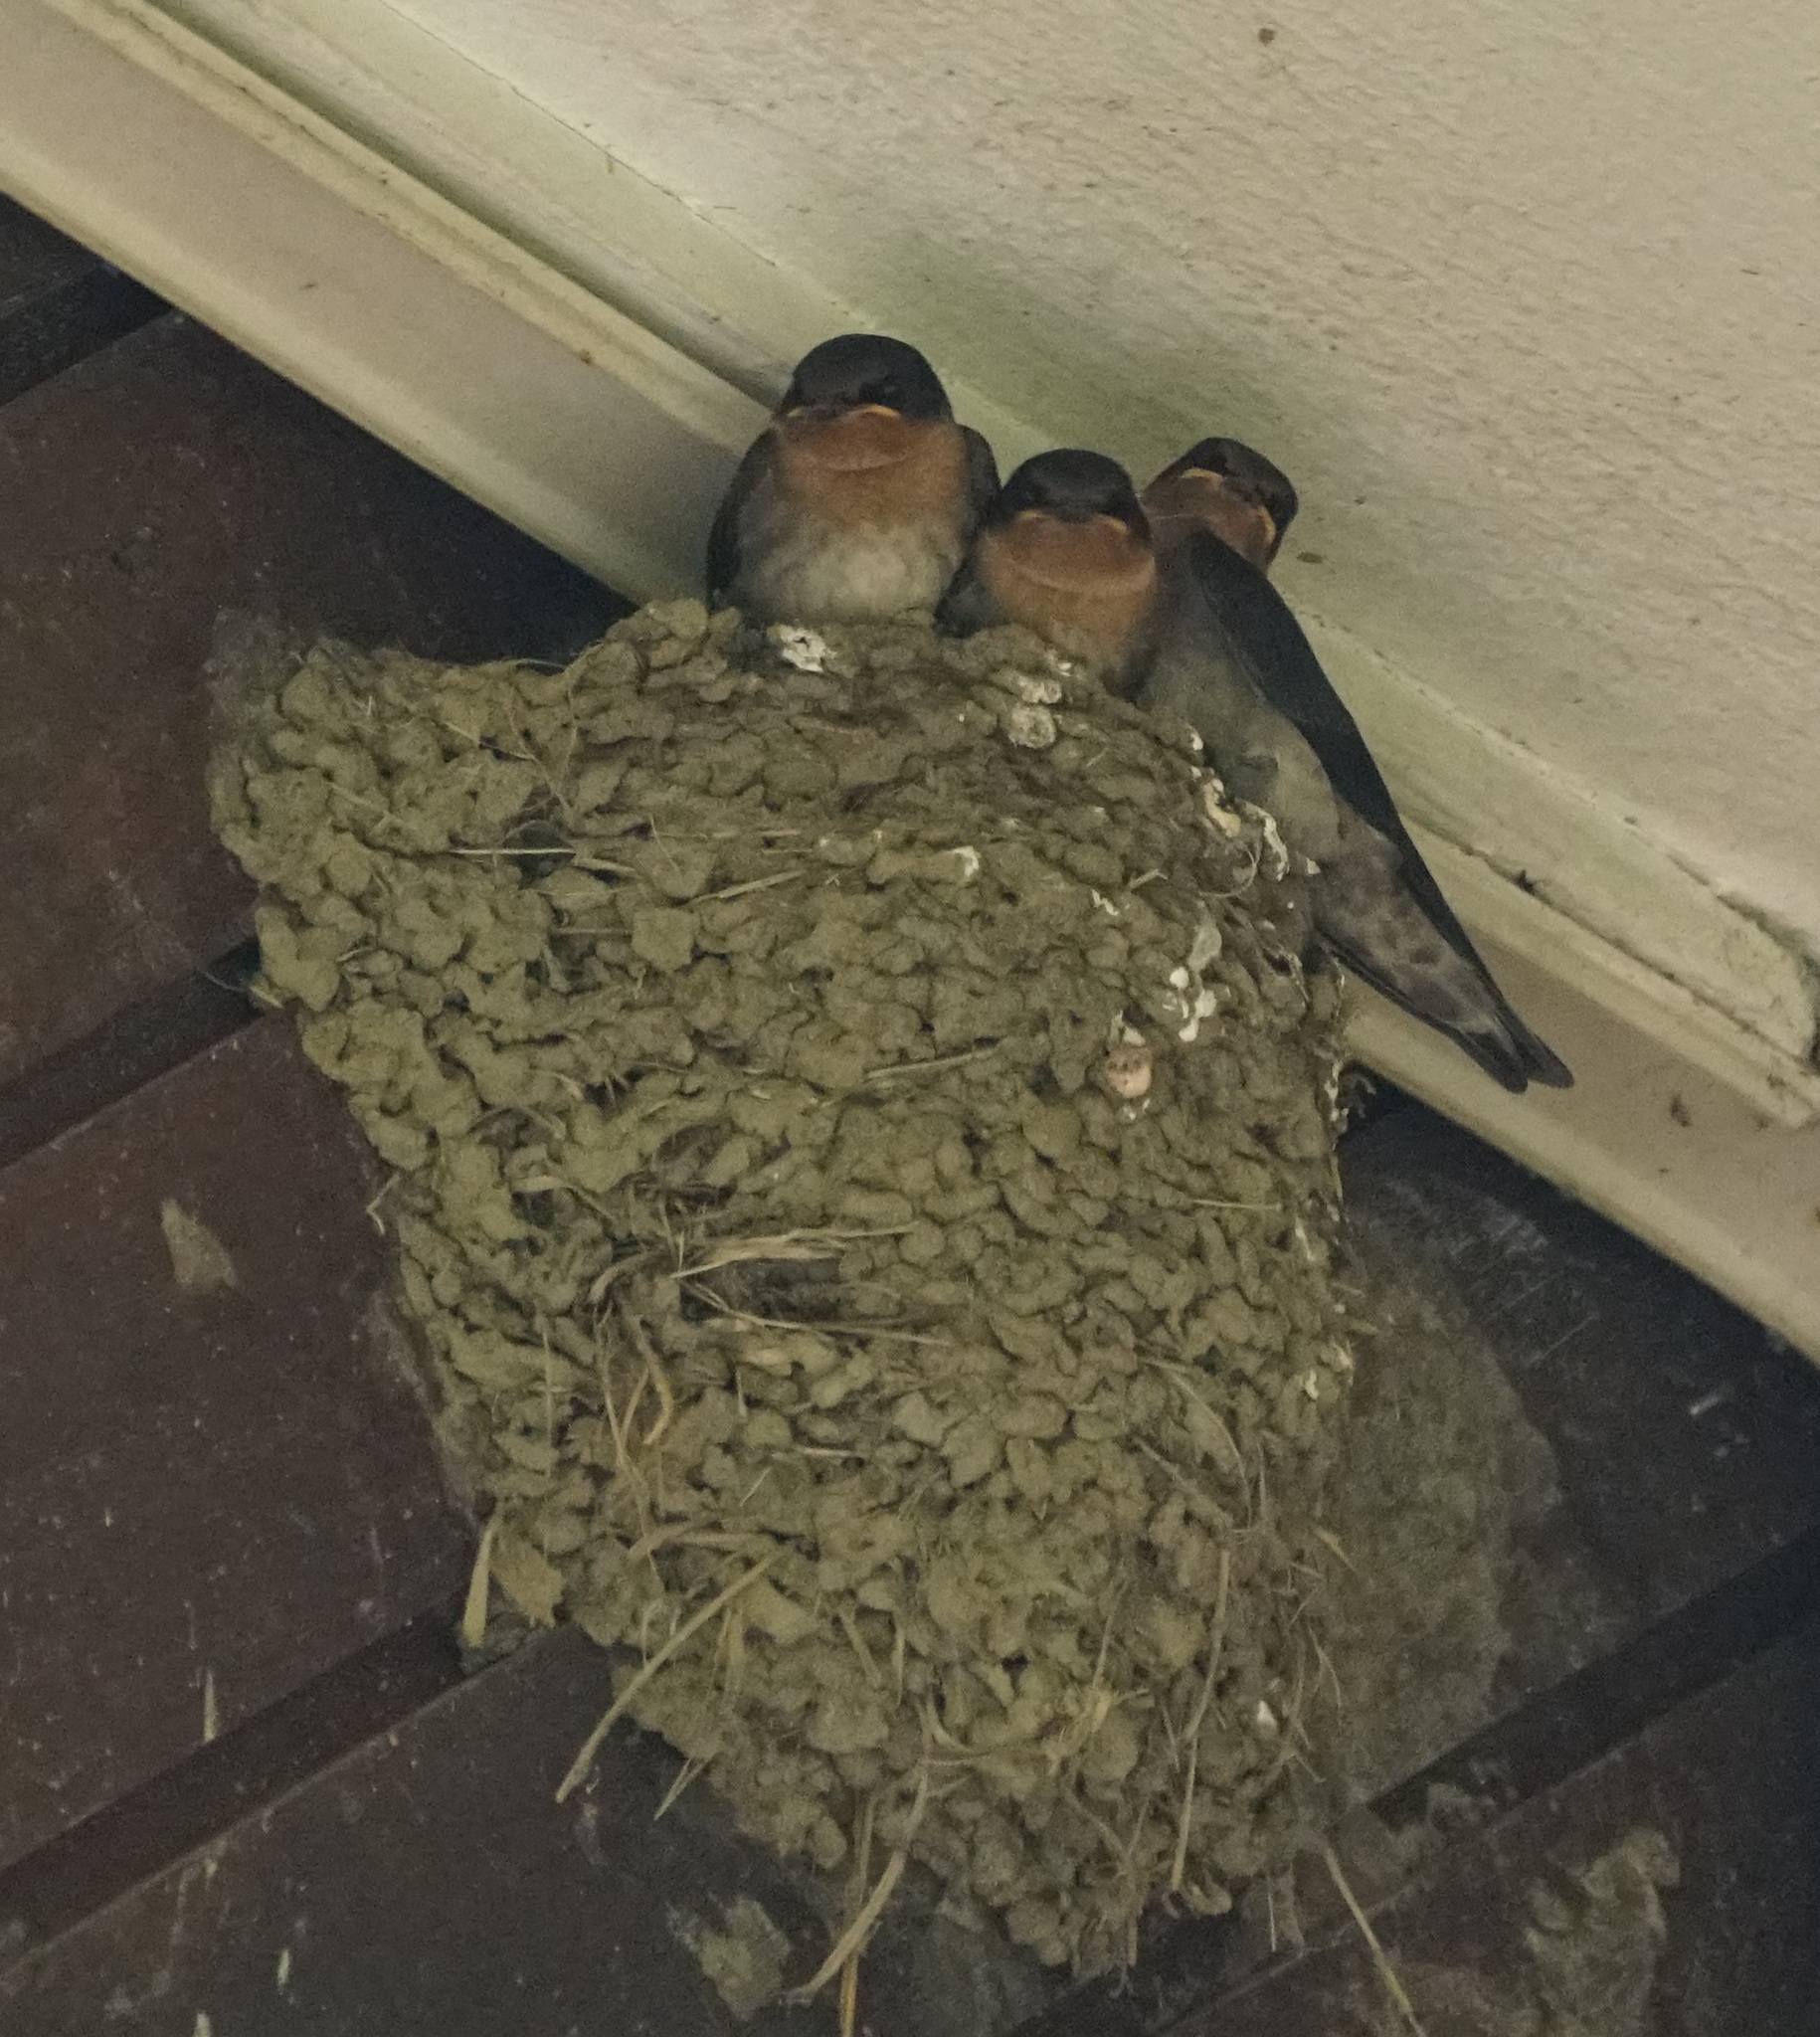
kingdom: Animalia
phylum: Chordata
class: Aves
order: Passeriformes
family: Hirundinidae
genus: Hirundo
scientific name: Hirundo tahitica
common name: Pacific swallow
